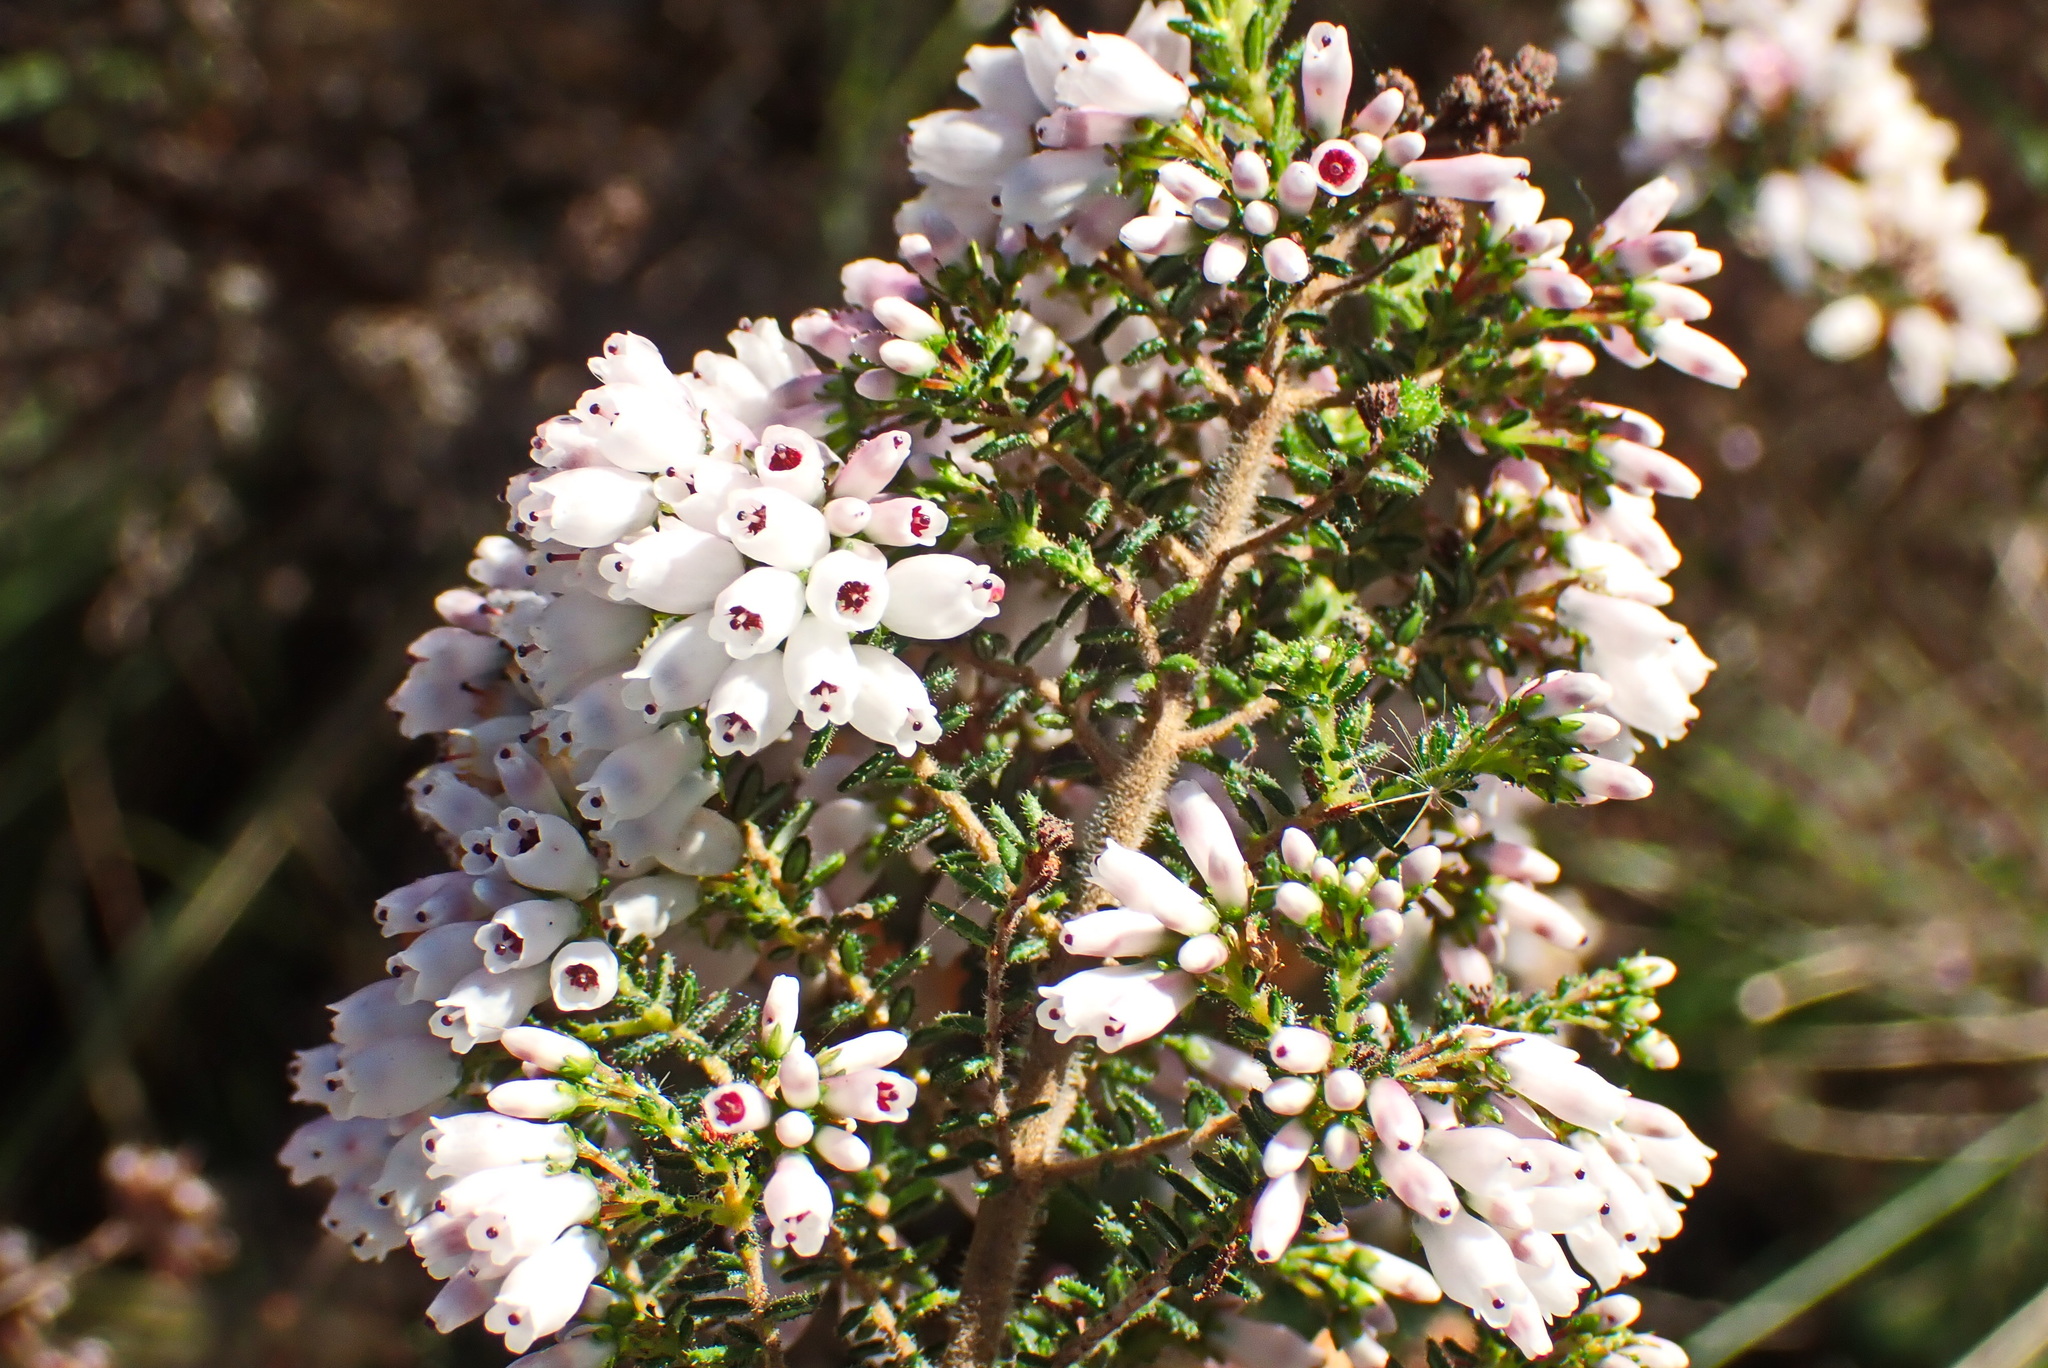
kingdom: Plantae
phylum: Tracheophyta
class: Magnoliopsida
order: Ericales
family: Ericaceae
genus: Erica
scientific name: Erica scabriuscula
